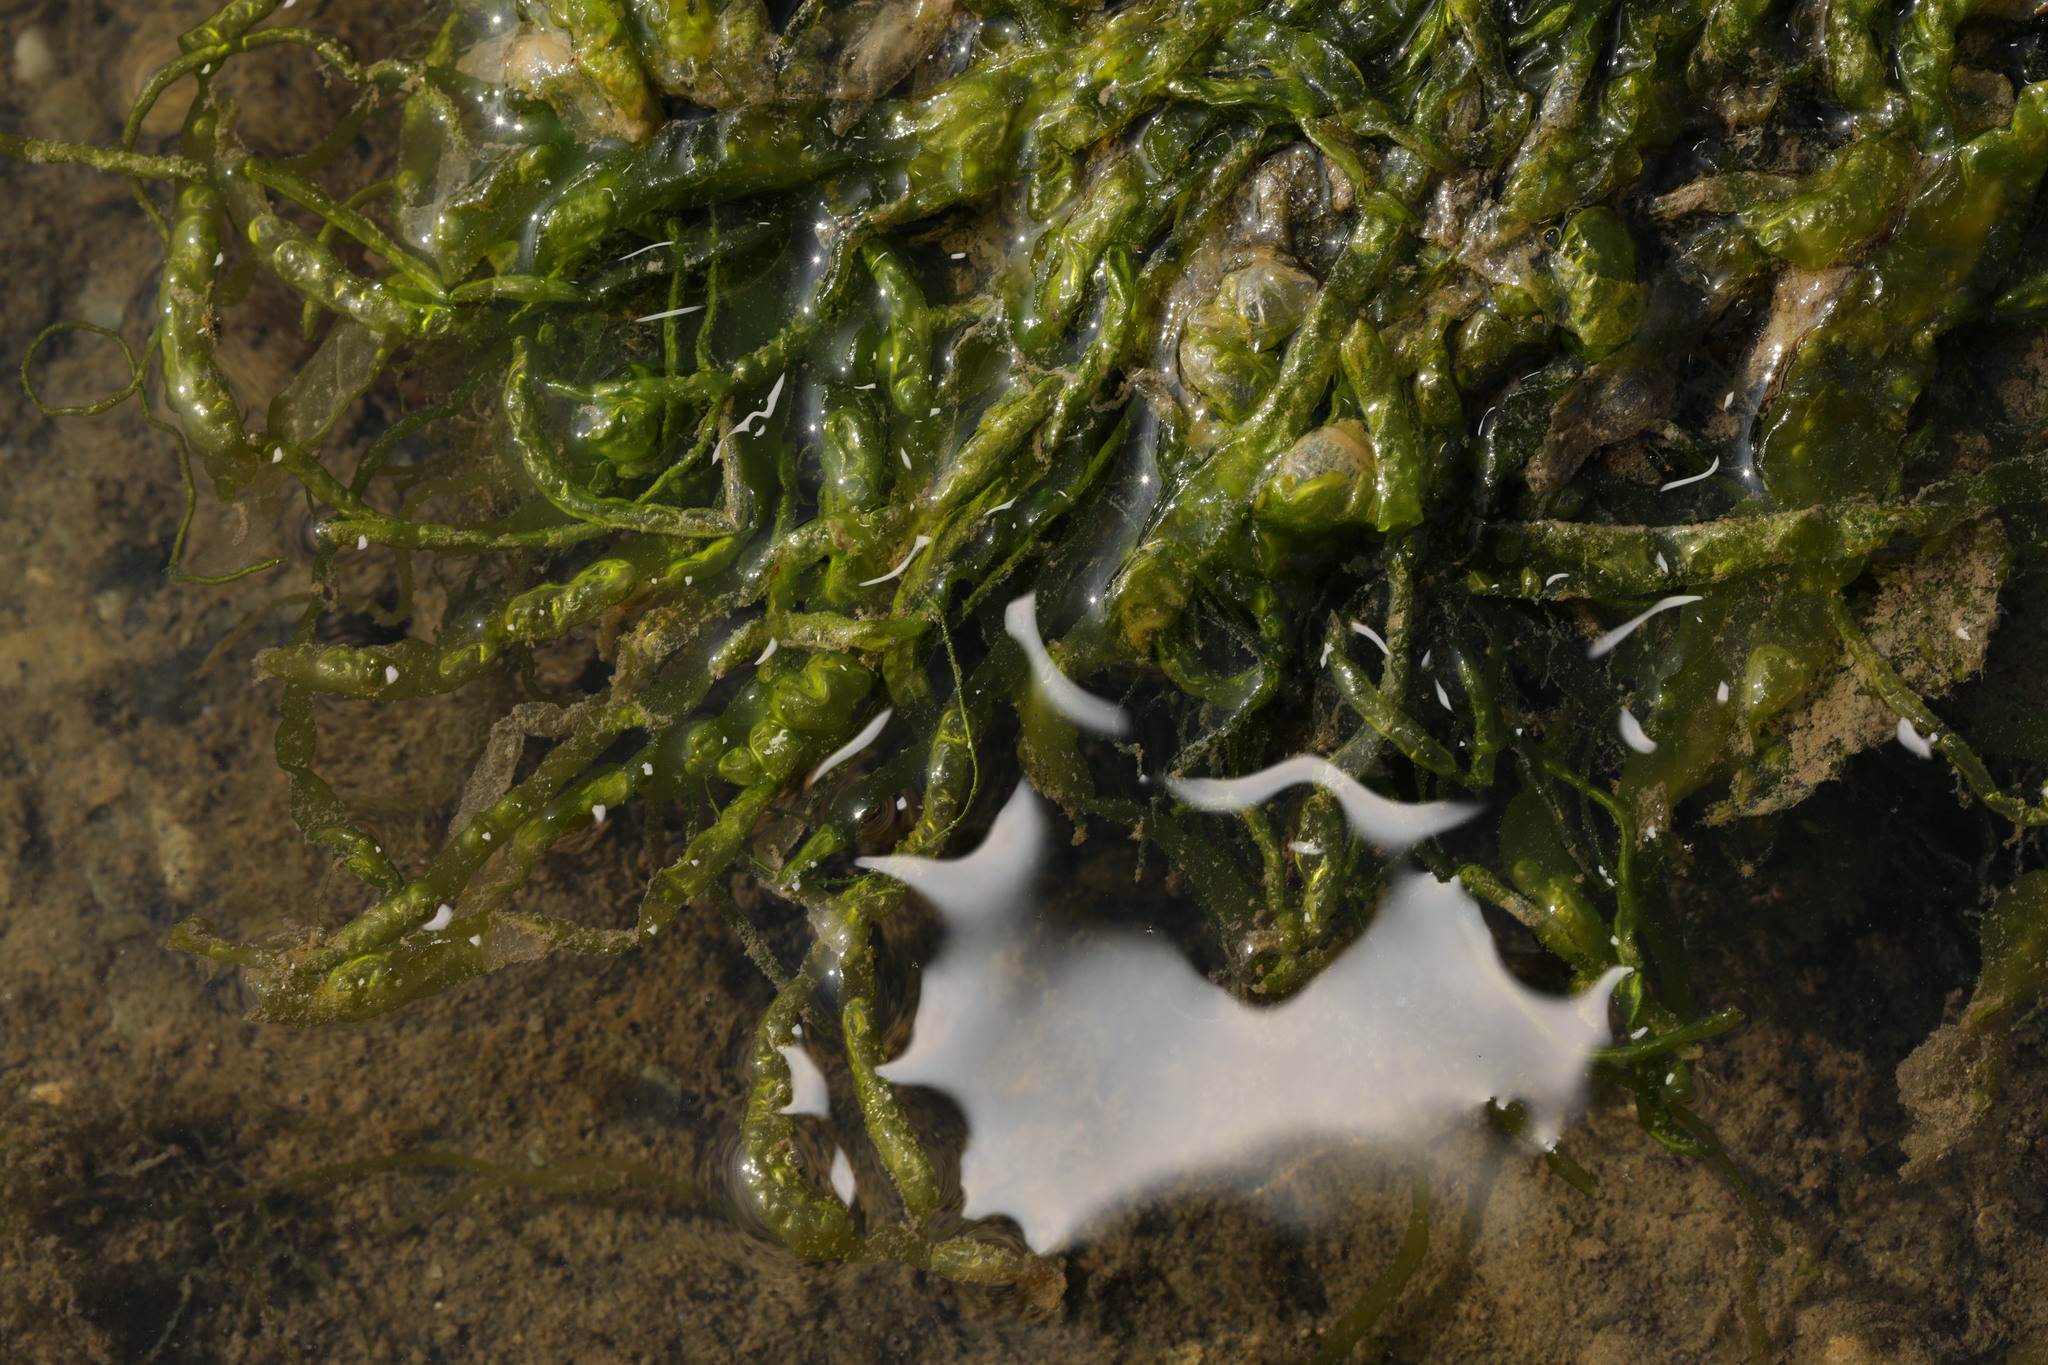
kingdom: Plantae
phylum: Chlorophyta
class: Ulvophyceae
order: Ulvales
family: Ulvaceae
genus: Ulva
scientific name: Ulva intestinalis
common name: Gut weed
